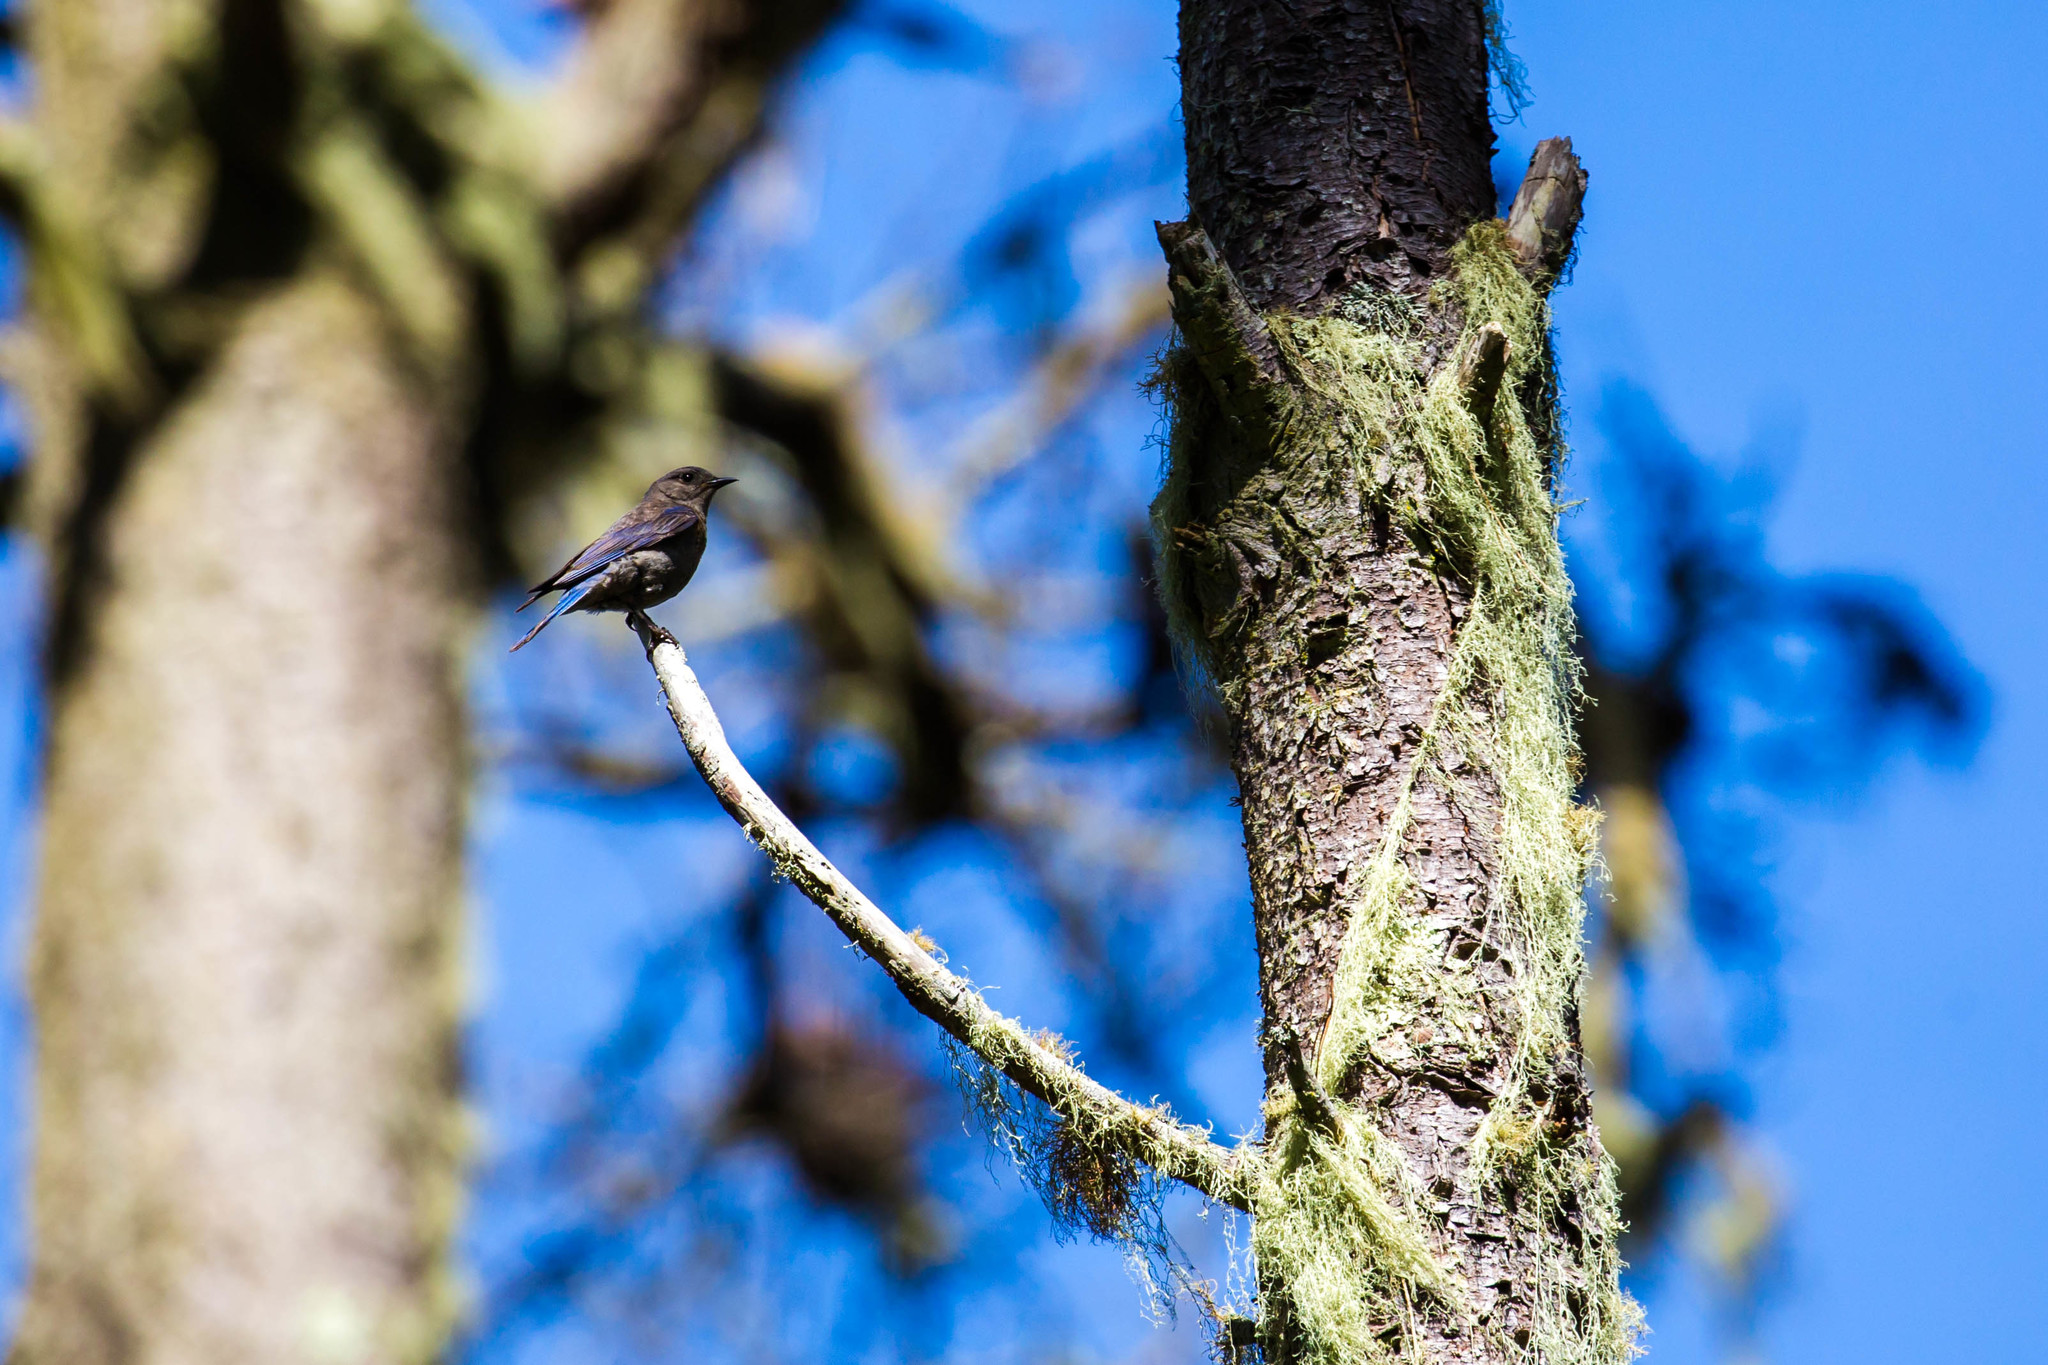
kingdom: Animalia
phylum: Chordata
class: Aves
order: Passeriformes
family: Turdidae
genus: Sialia
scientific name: Sialia mexicana
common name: Western bluebird
